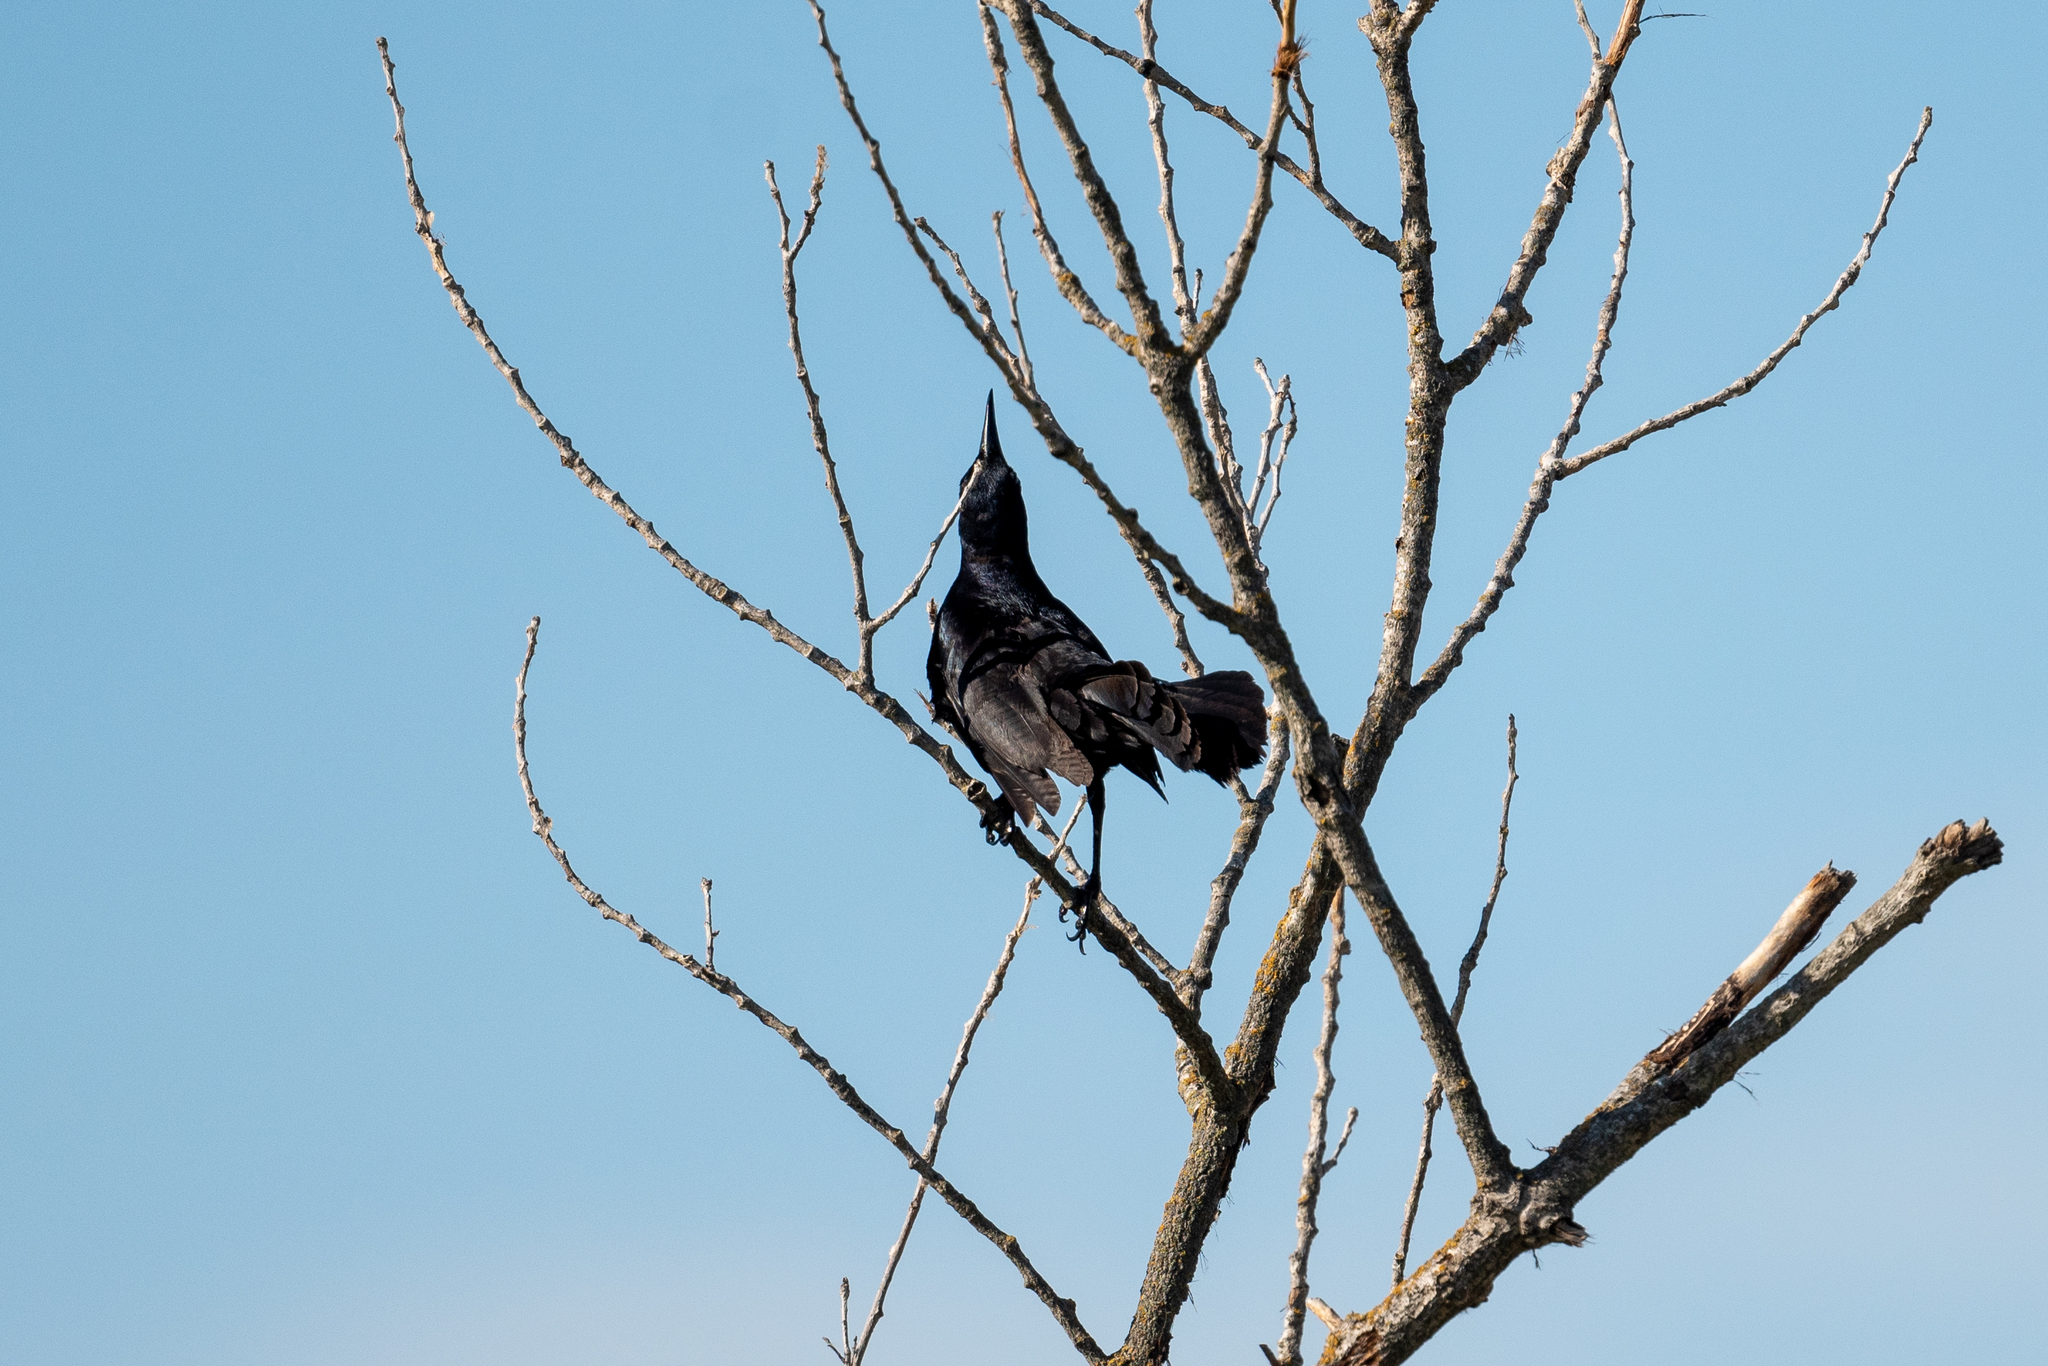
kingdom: Animalia
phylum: Chordata
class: Aves
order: Passeriformes
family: Icteridae
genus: Quiscalus
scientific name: Quiscalus mexicanus
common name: Great-tailed grackle
